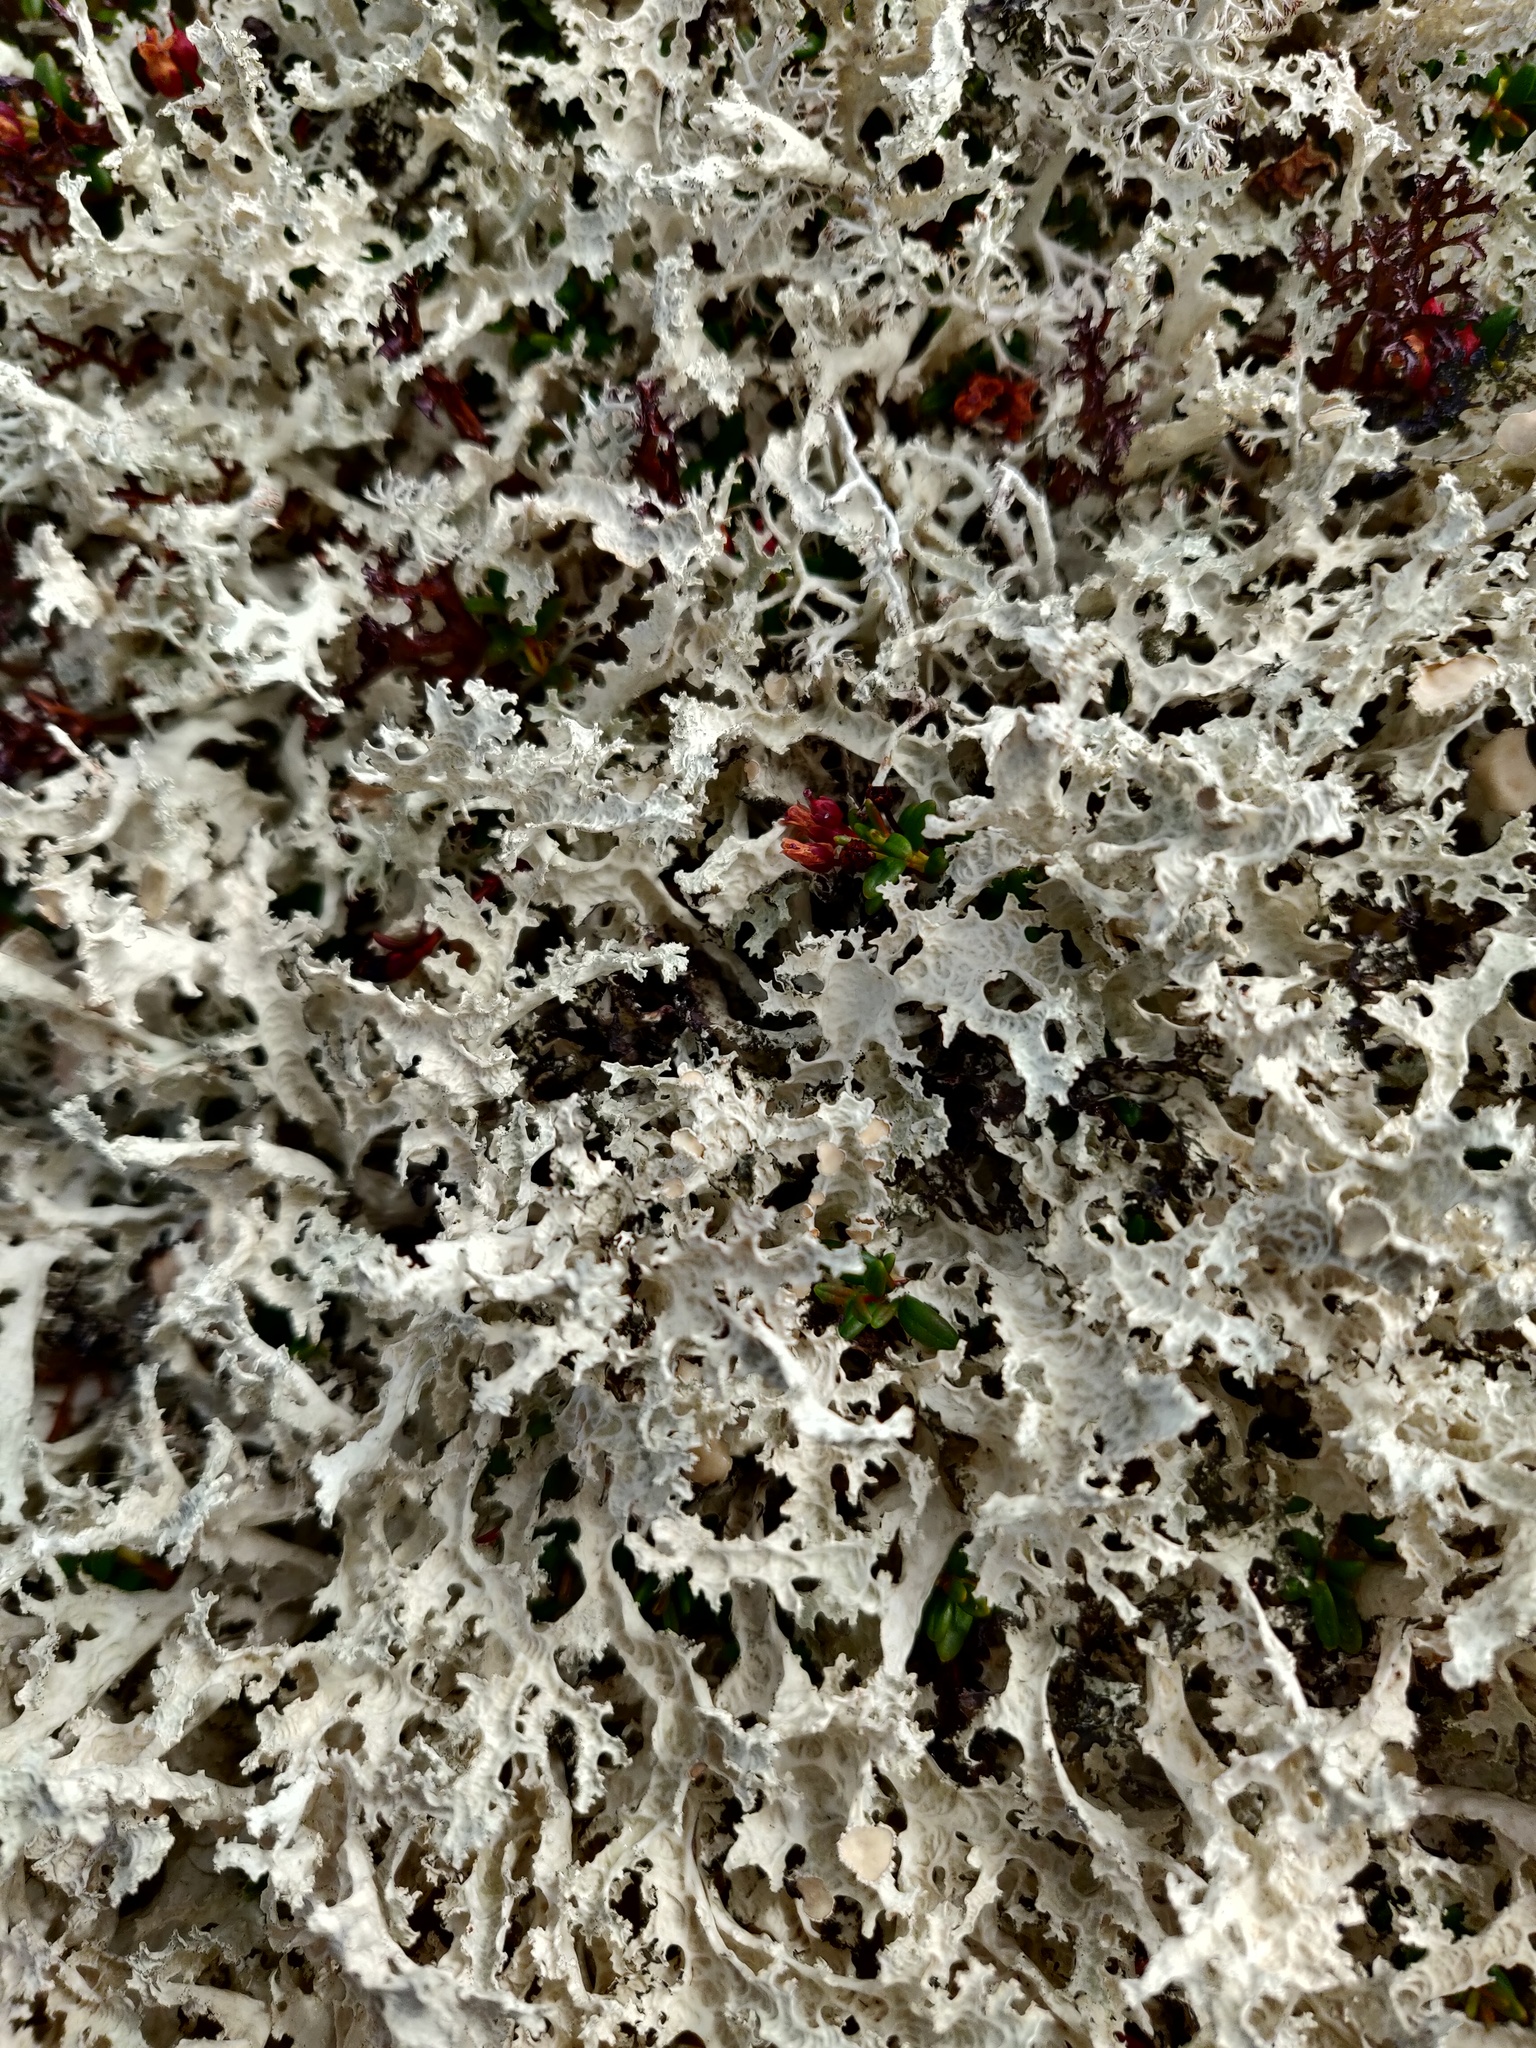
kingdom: Fungi
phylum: Ascomycota
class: Lecanoromycetes
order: Lecanorales
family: Parmeliaceae
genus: Nephromopsis
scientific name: Nephromopsis nivalis
